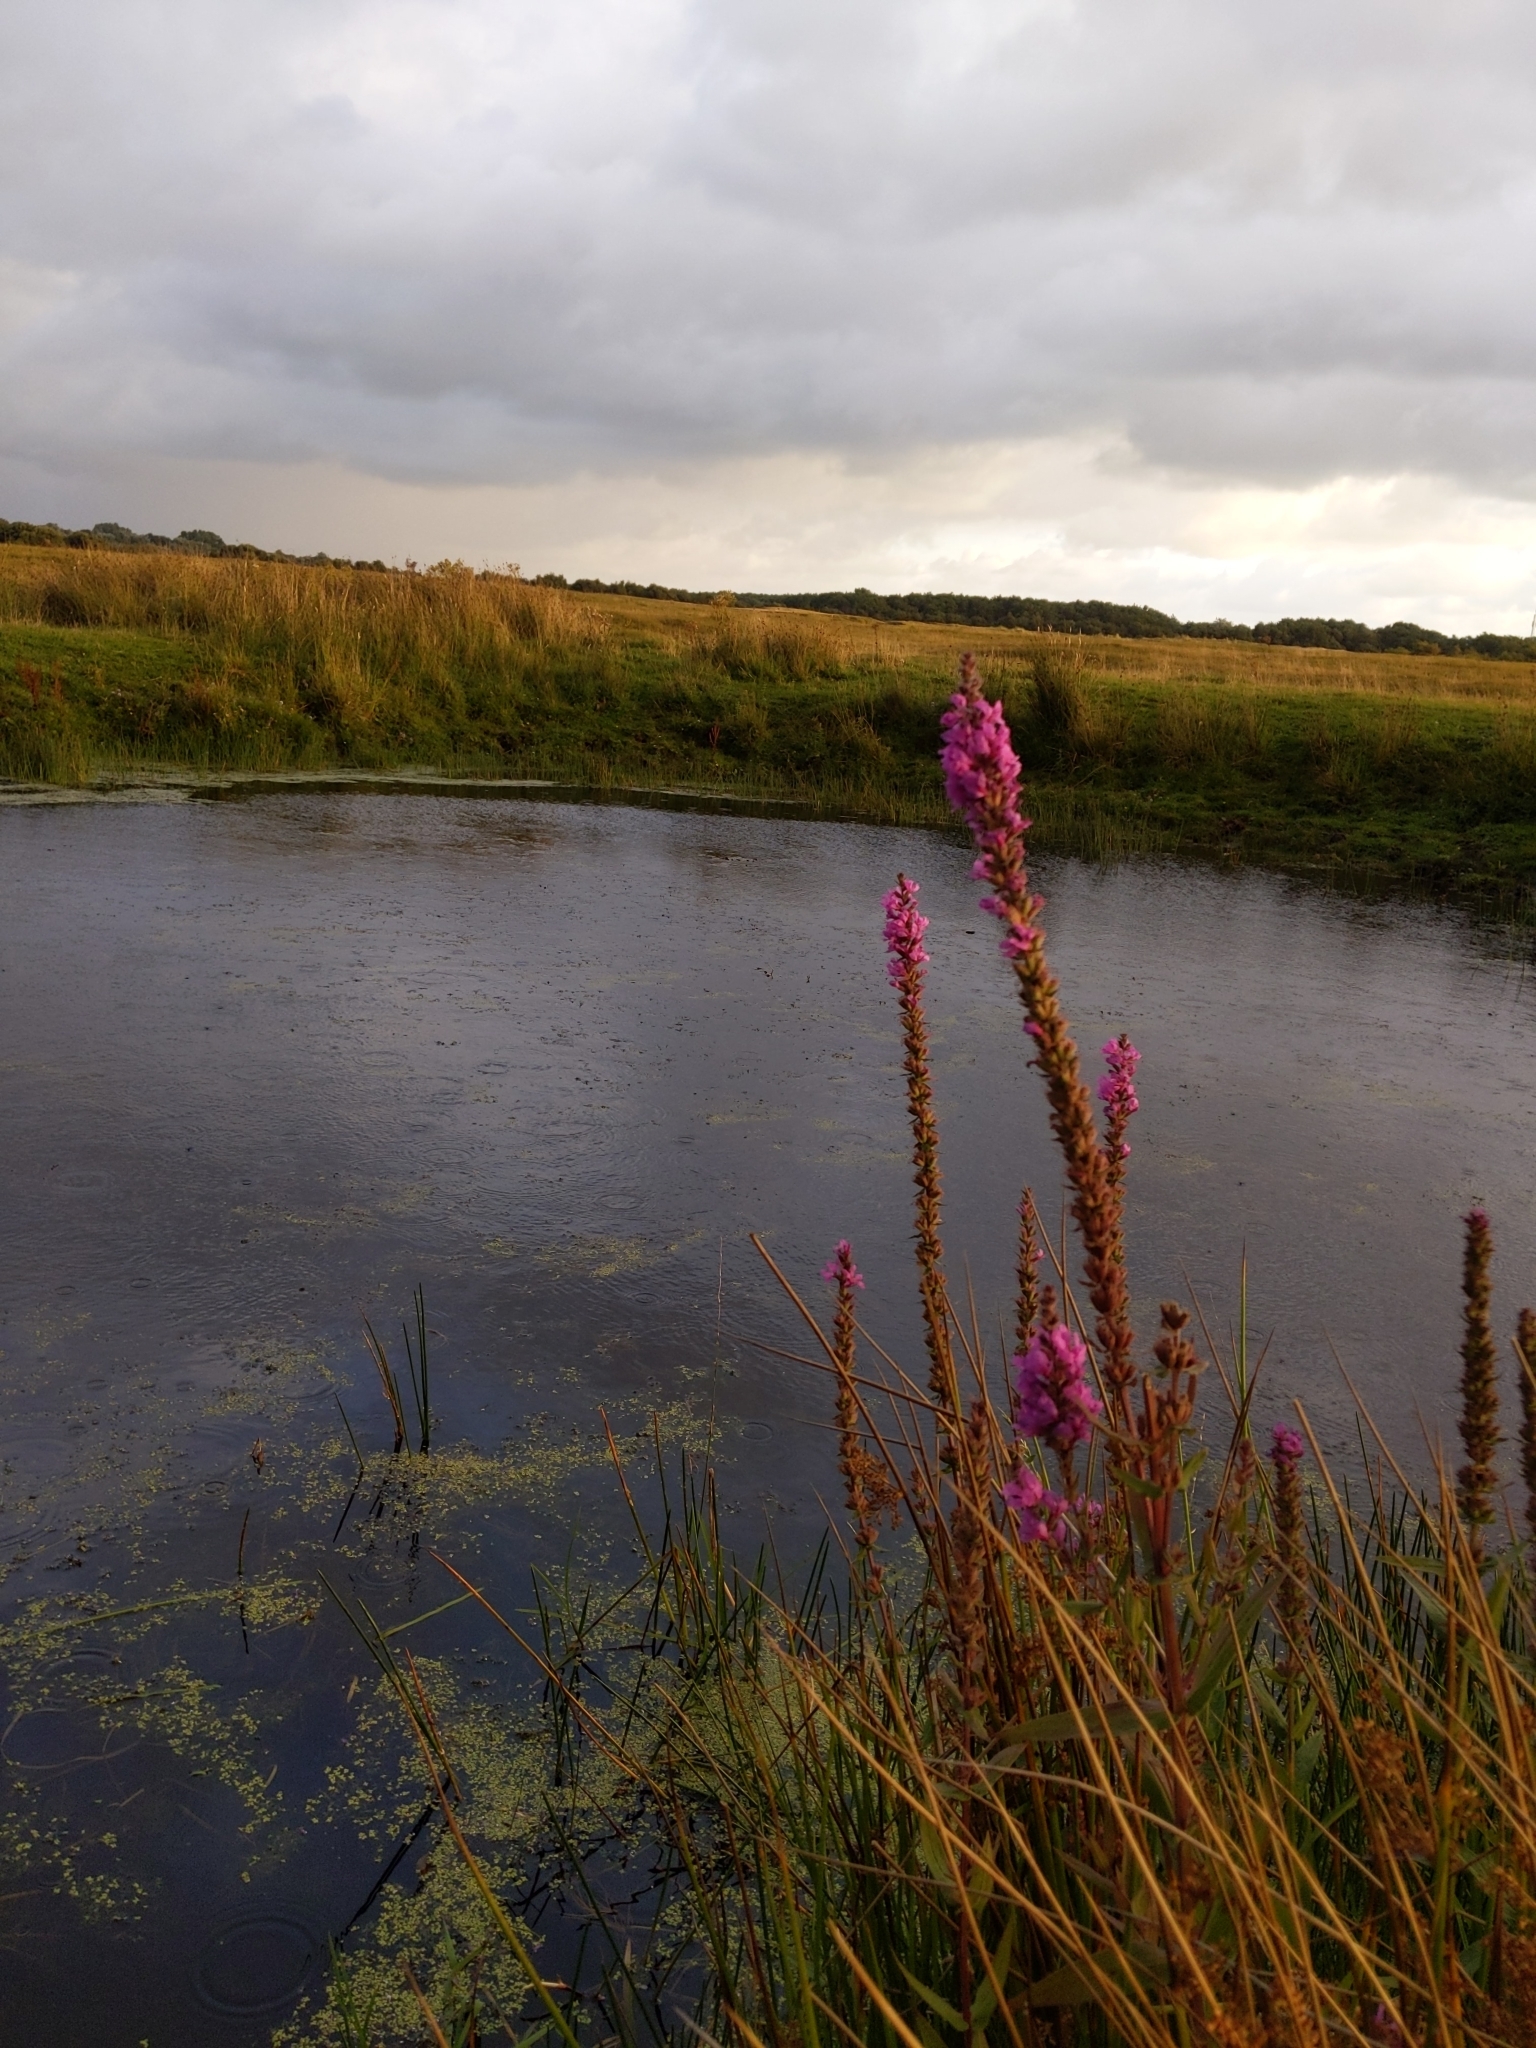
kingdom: Plantae
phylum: Tracheophyta
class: Magnoliopsida
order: Myrtales
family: Lythraceae
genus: Lythrum
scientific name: Lythrum salicaria
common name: Purple loosestrife
